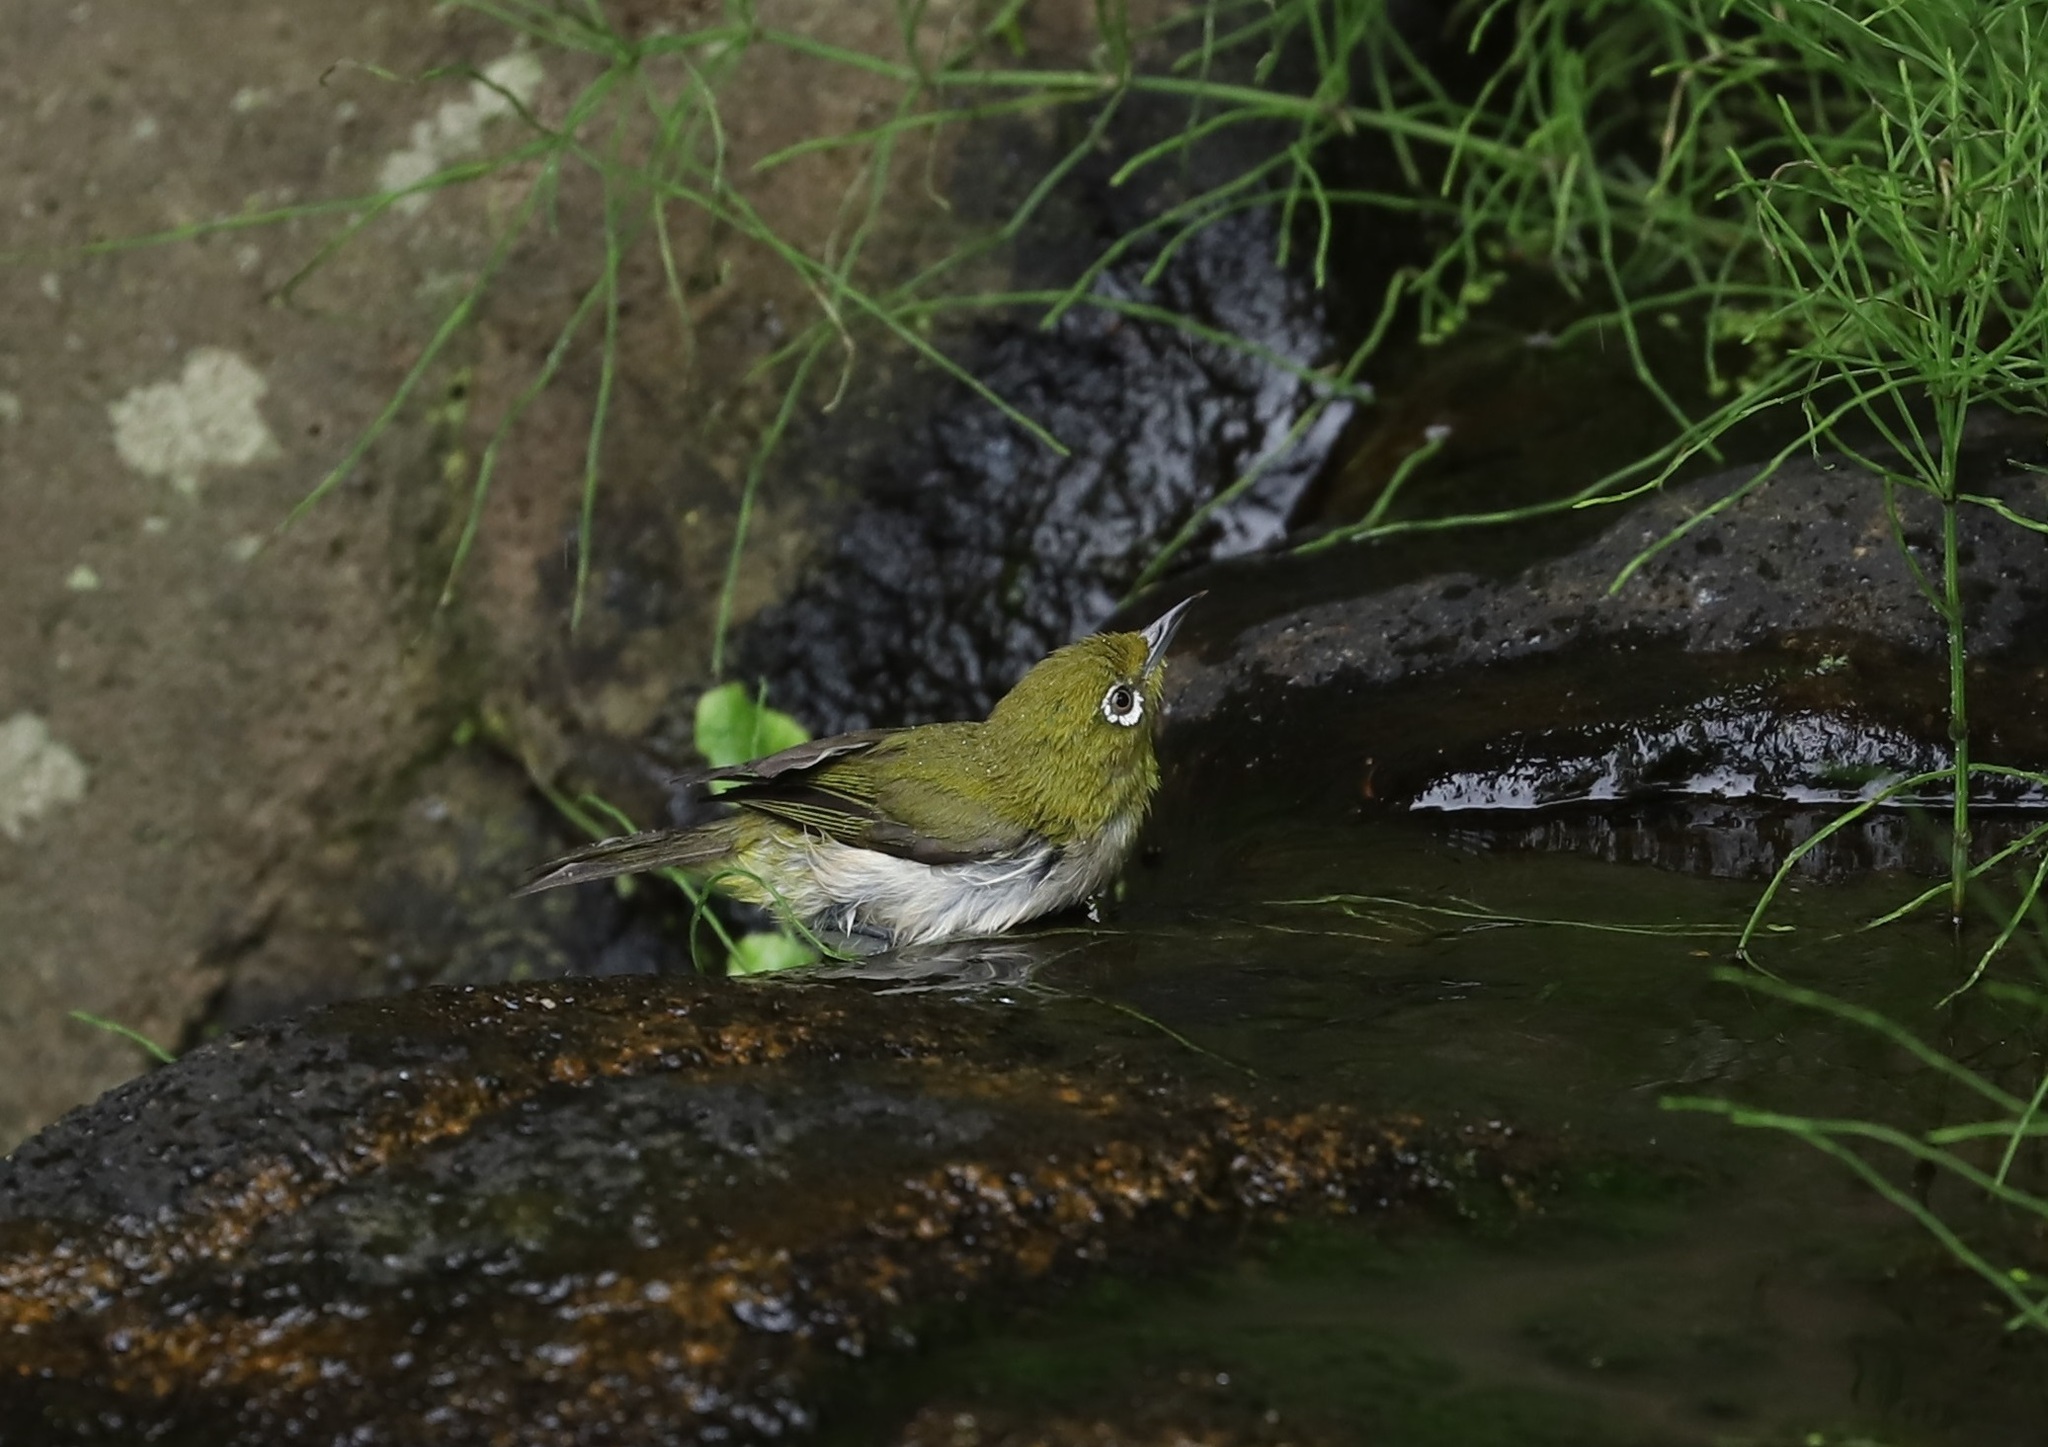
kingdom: Animalia
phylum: Chordata
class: Aves
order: Passeriformes
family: Zosteropidae
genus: Zosterops
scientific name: Zosterops japonicus
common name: Japanese white-eye
